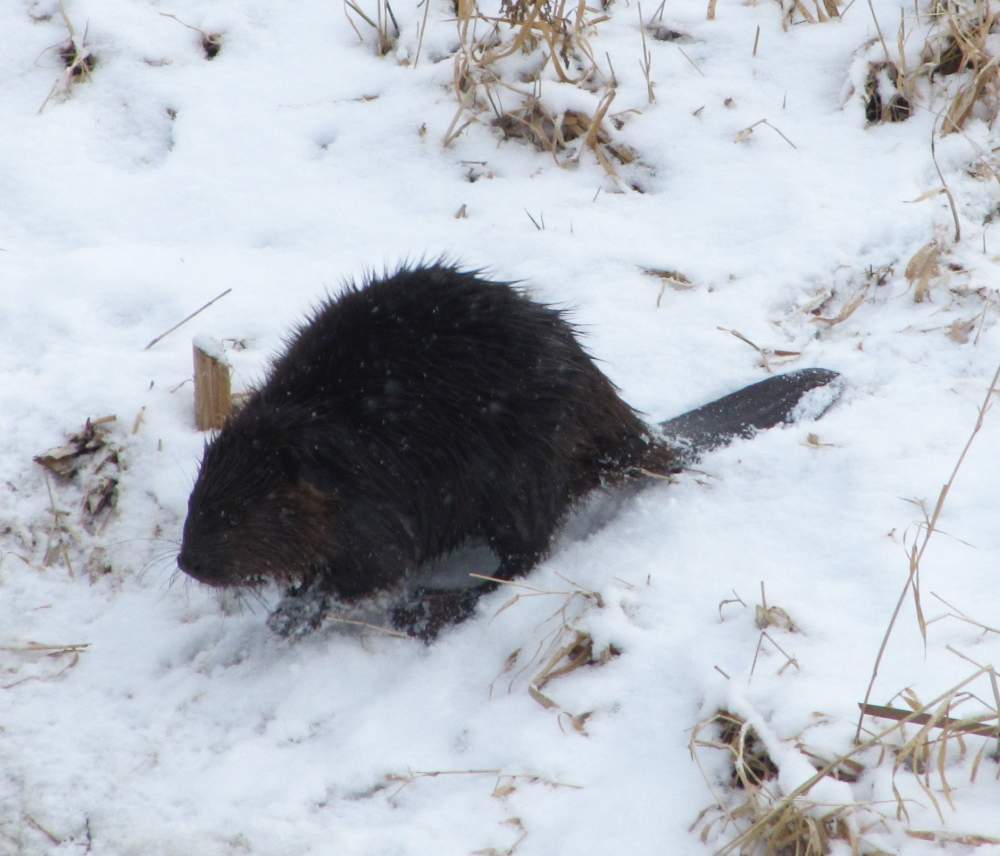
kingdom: Animalia
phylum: Chordata
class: Mammalia
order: Rodentia
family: Castoridae
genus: Castor
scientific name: Castor canadensis
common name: American beaver
